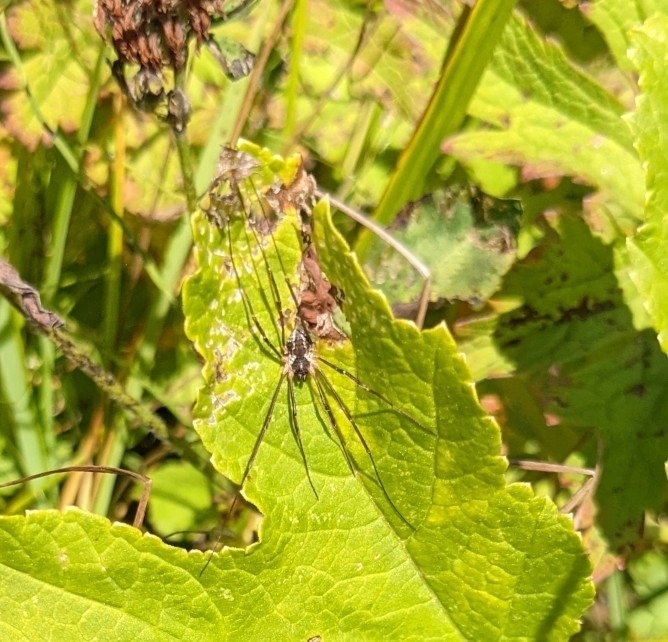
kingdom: Animalia
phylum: Arthropoda
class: Arachnida
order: Opiliones
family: Phalangiidae
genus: Mitopus
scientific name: Mitopus morio
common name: Saddleback harvestman
